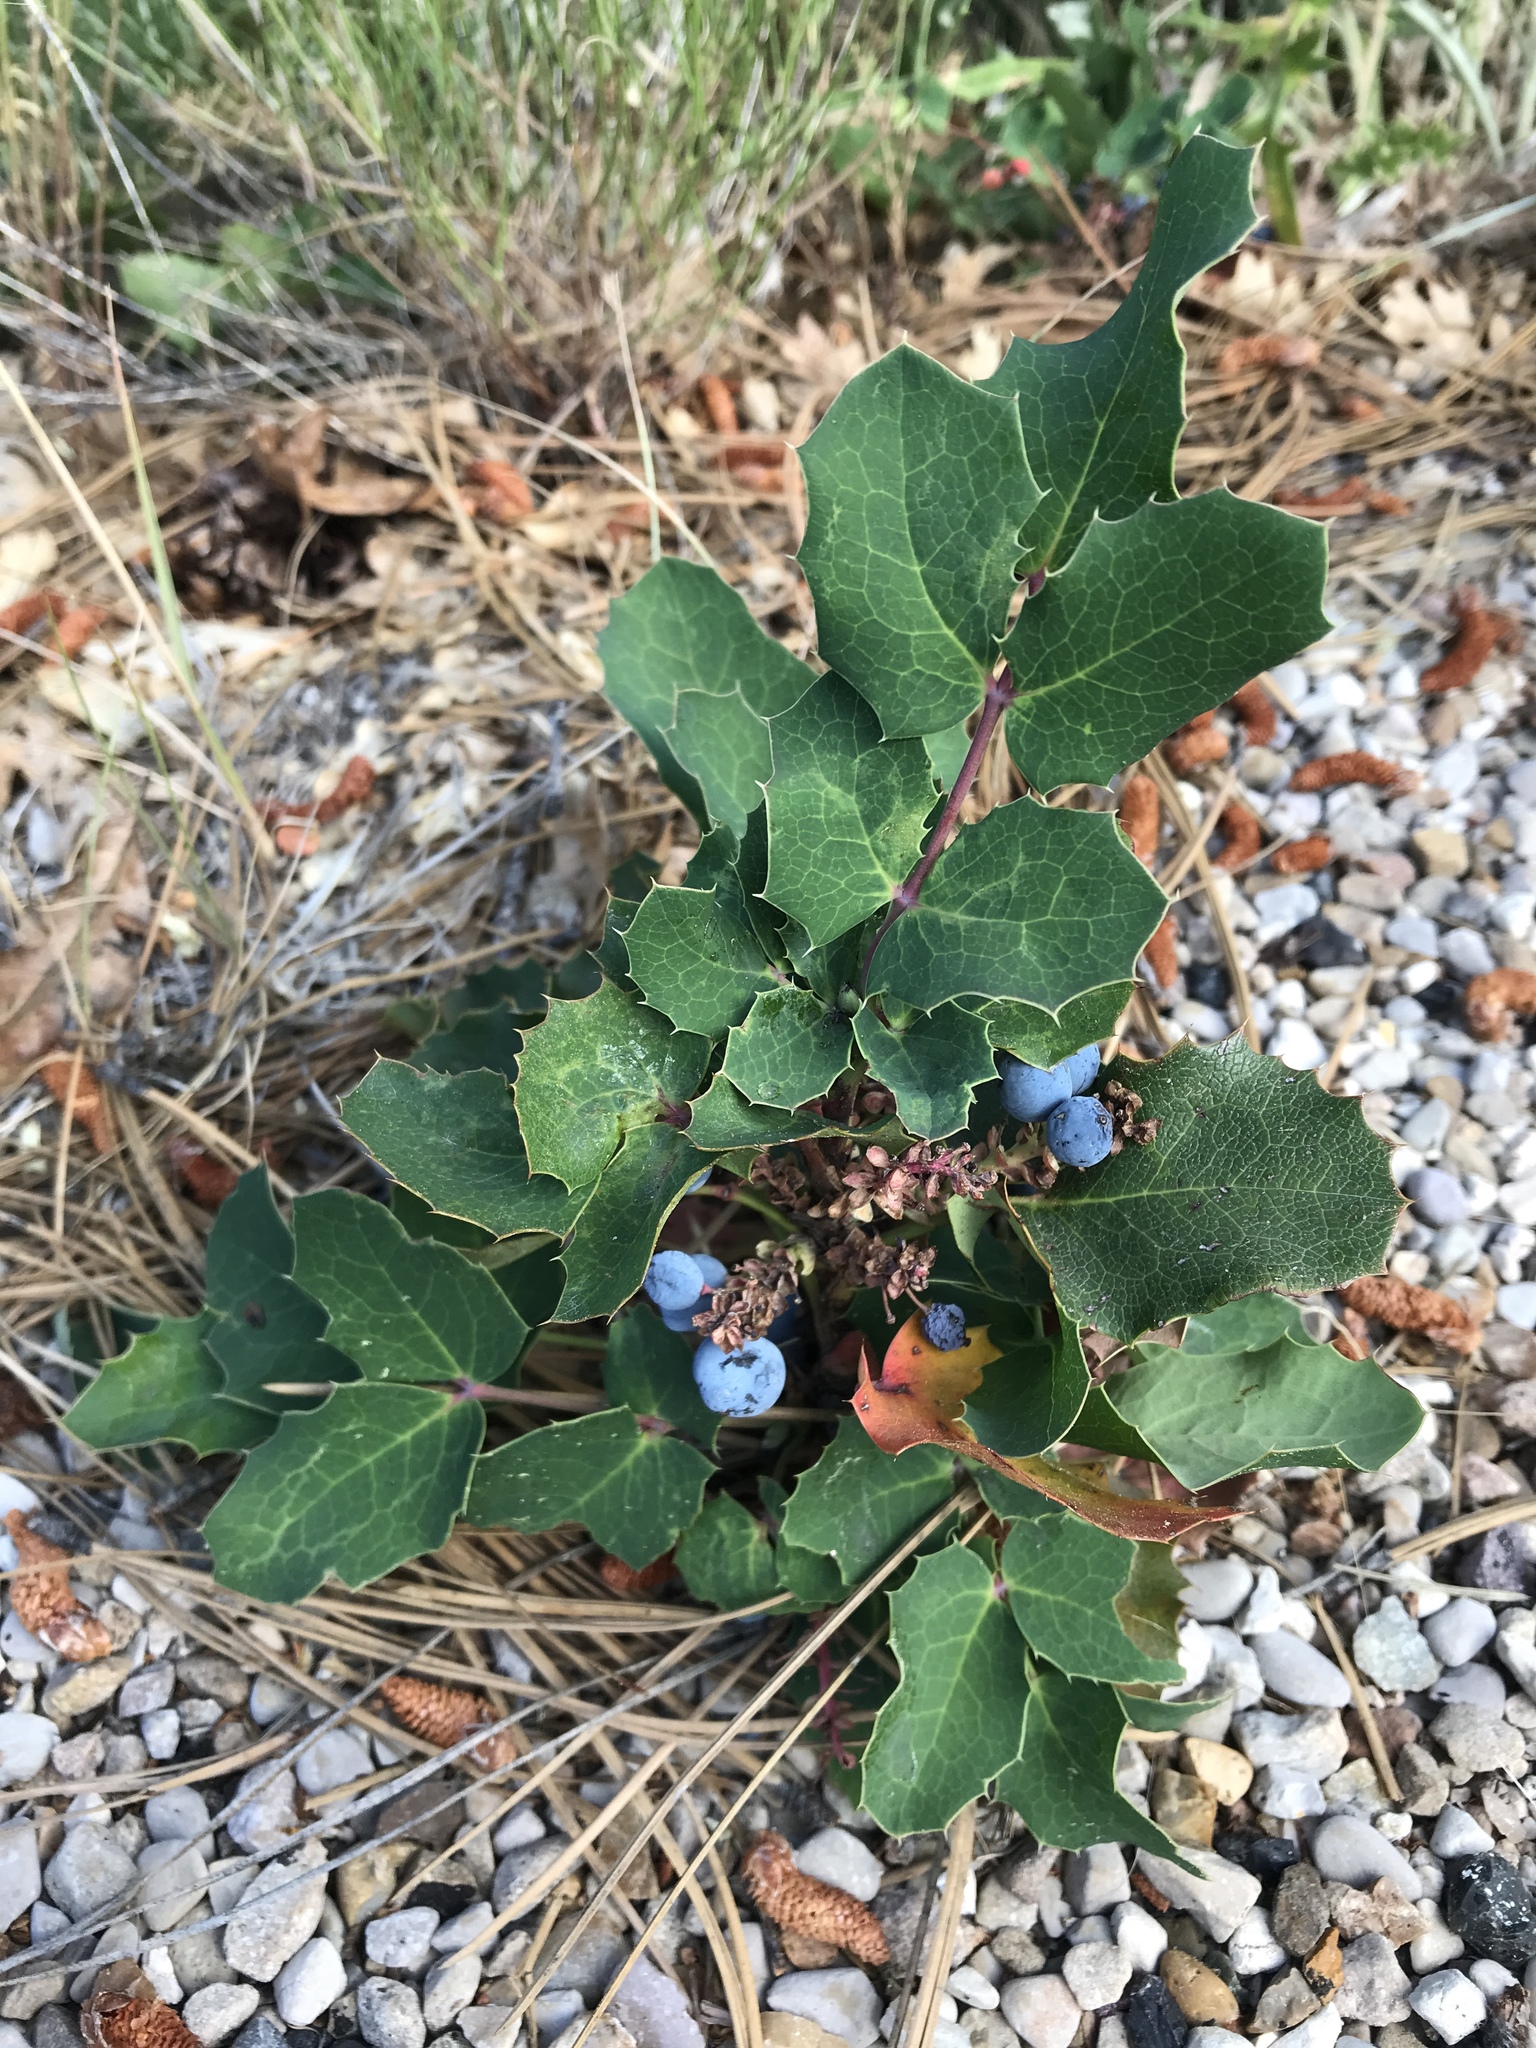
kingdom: Plantae
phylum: Tracheophyta
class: Magnoliopsida
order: Ranunculales
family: Berberidaceae
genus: Mahonia
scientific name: Mahonia repens
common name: Creeping oregon-grape
